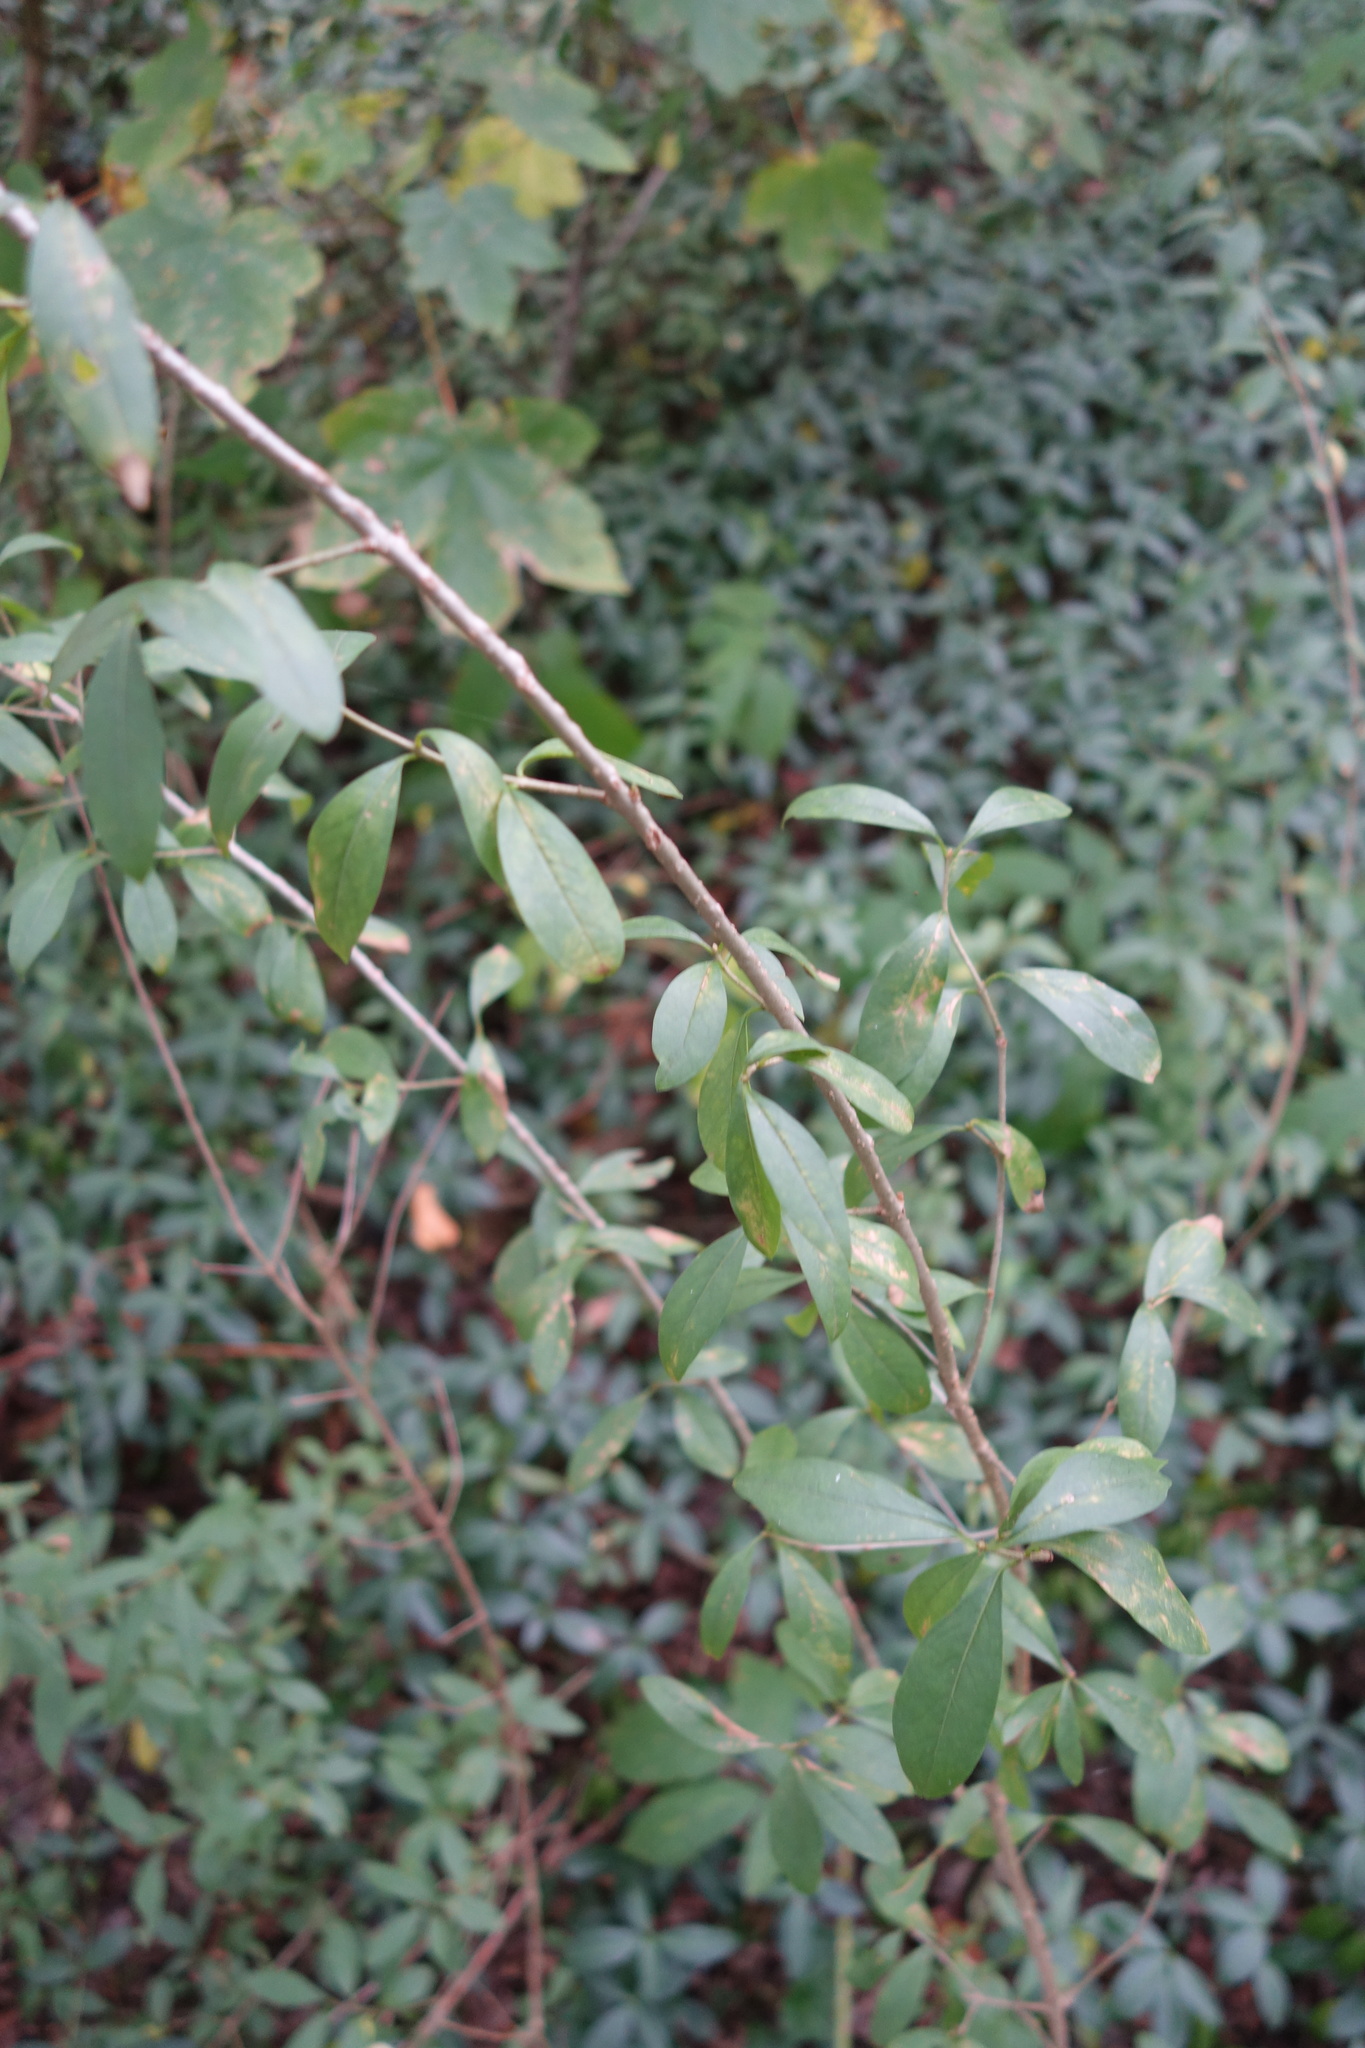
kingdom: Plantae
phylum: Tracheophyta
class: Magnoliopsida
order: Lamiales
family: Oleaceae
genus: Ligustrum
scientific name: Ligustrum vulgare
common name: Wild privet
